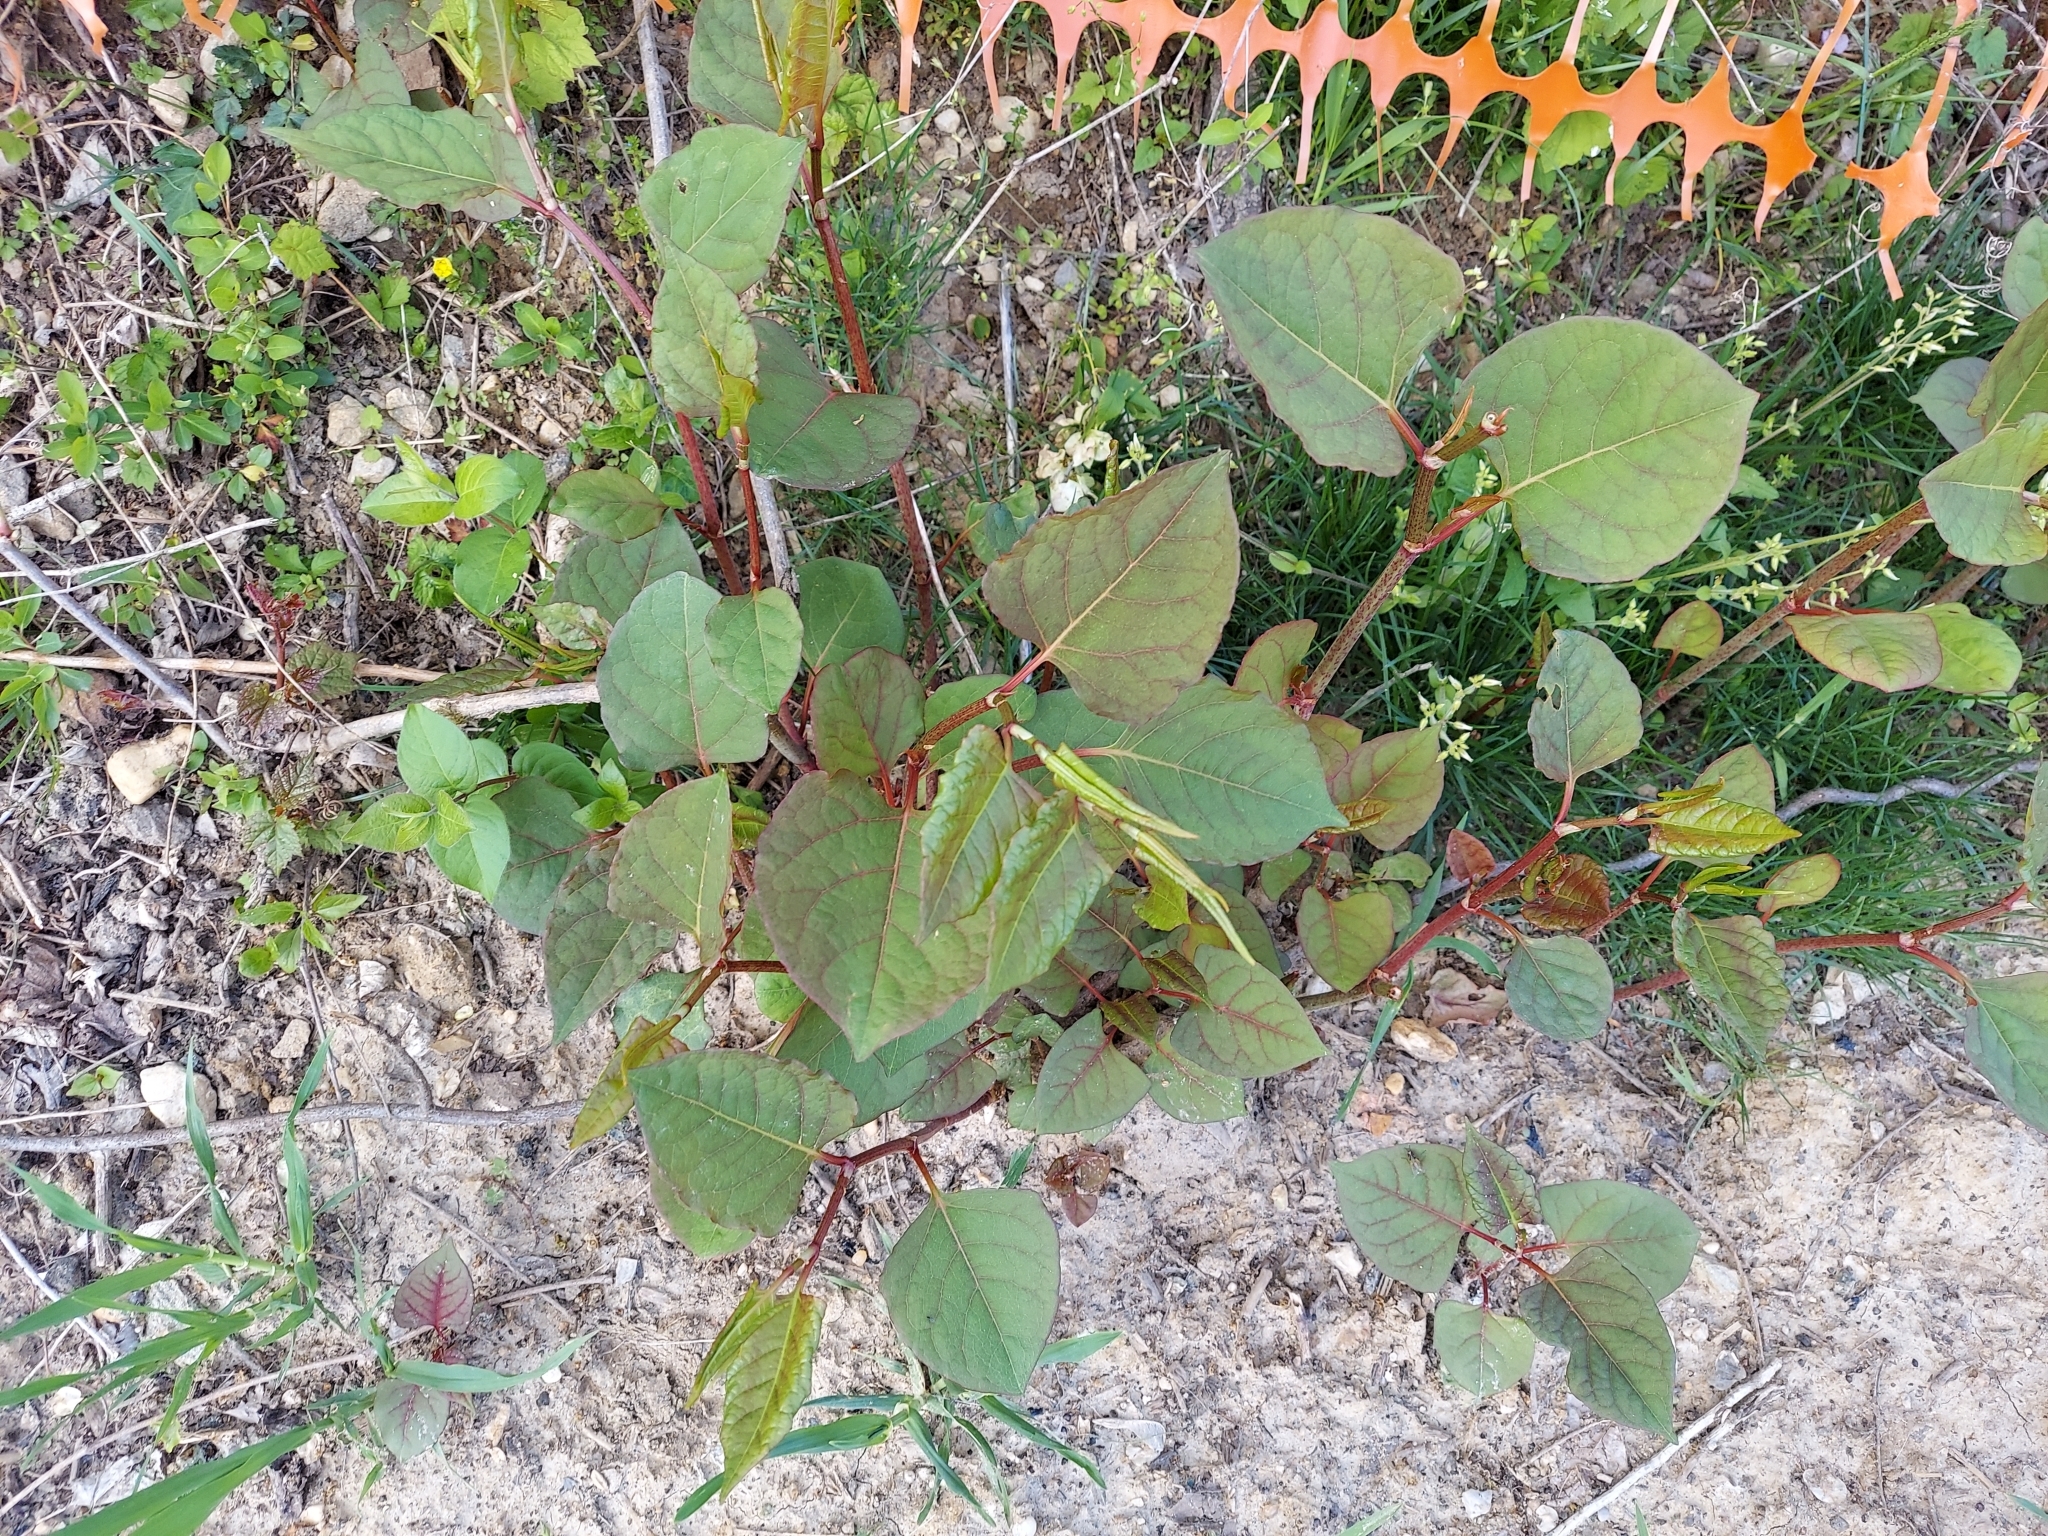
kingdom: Plantae
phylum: Tracheophyta
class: Magnoliopsida
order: Caryophyllales
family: Polygonaceae
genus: Reynoutria
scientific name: Reynoutria japonica
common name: Japanese knotweed
